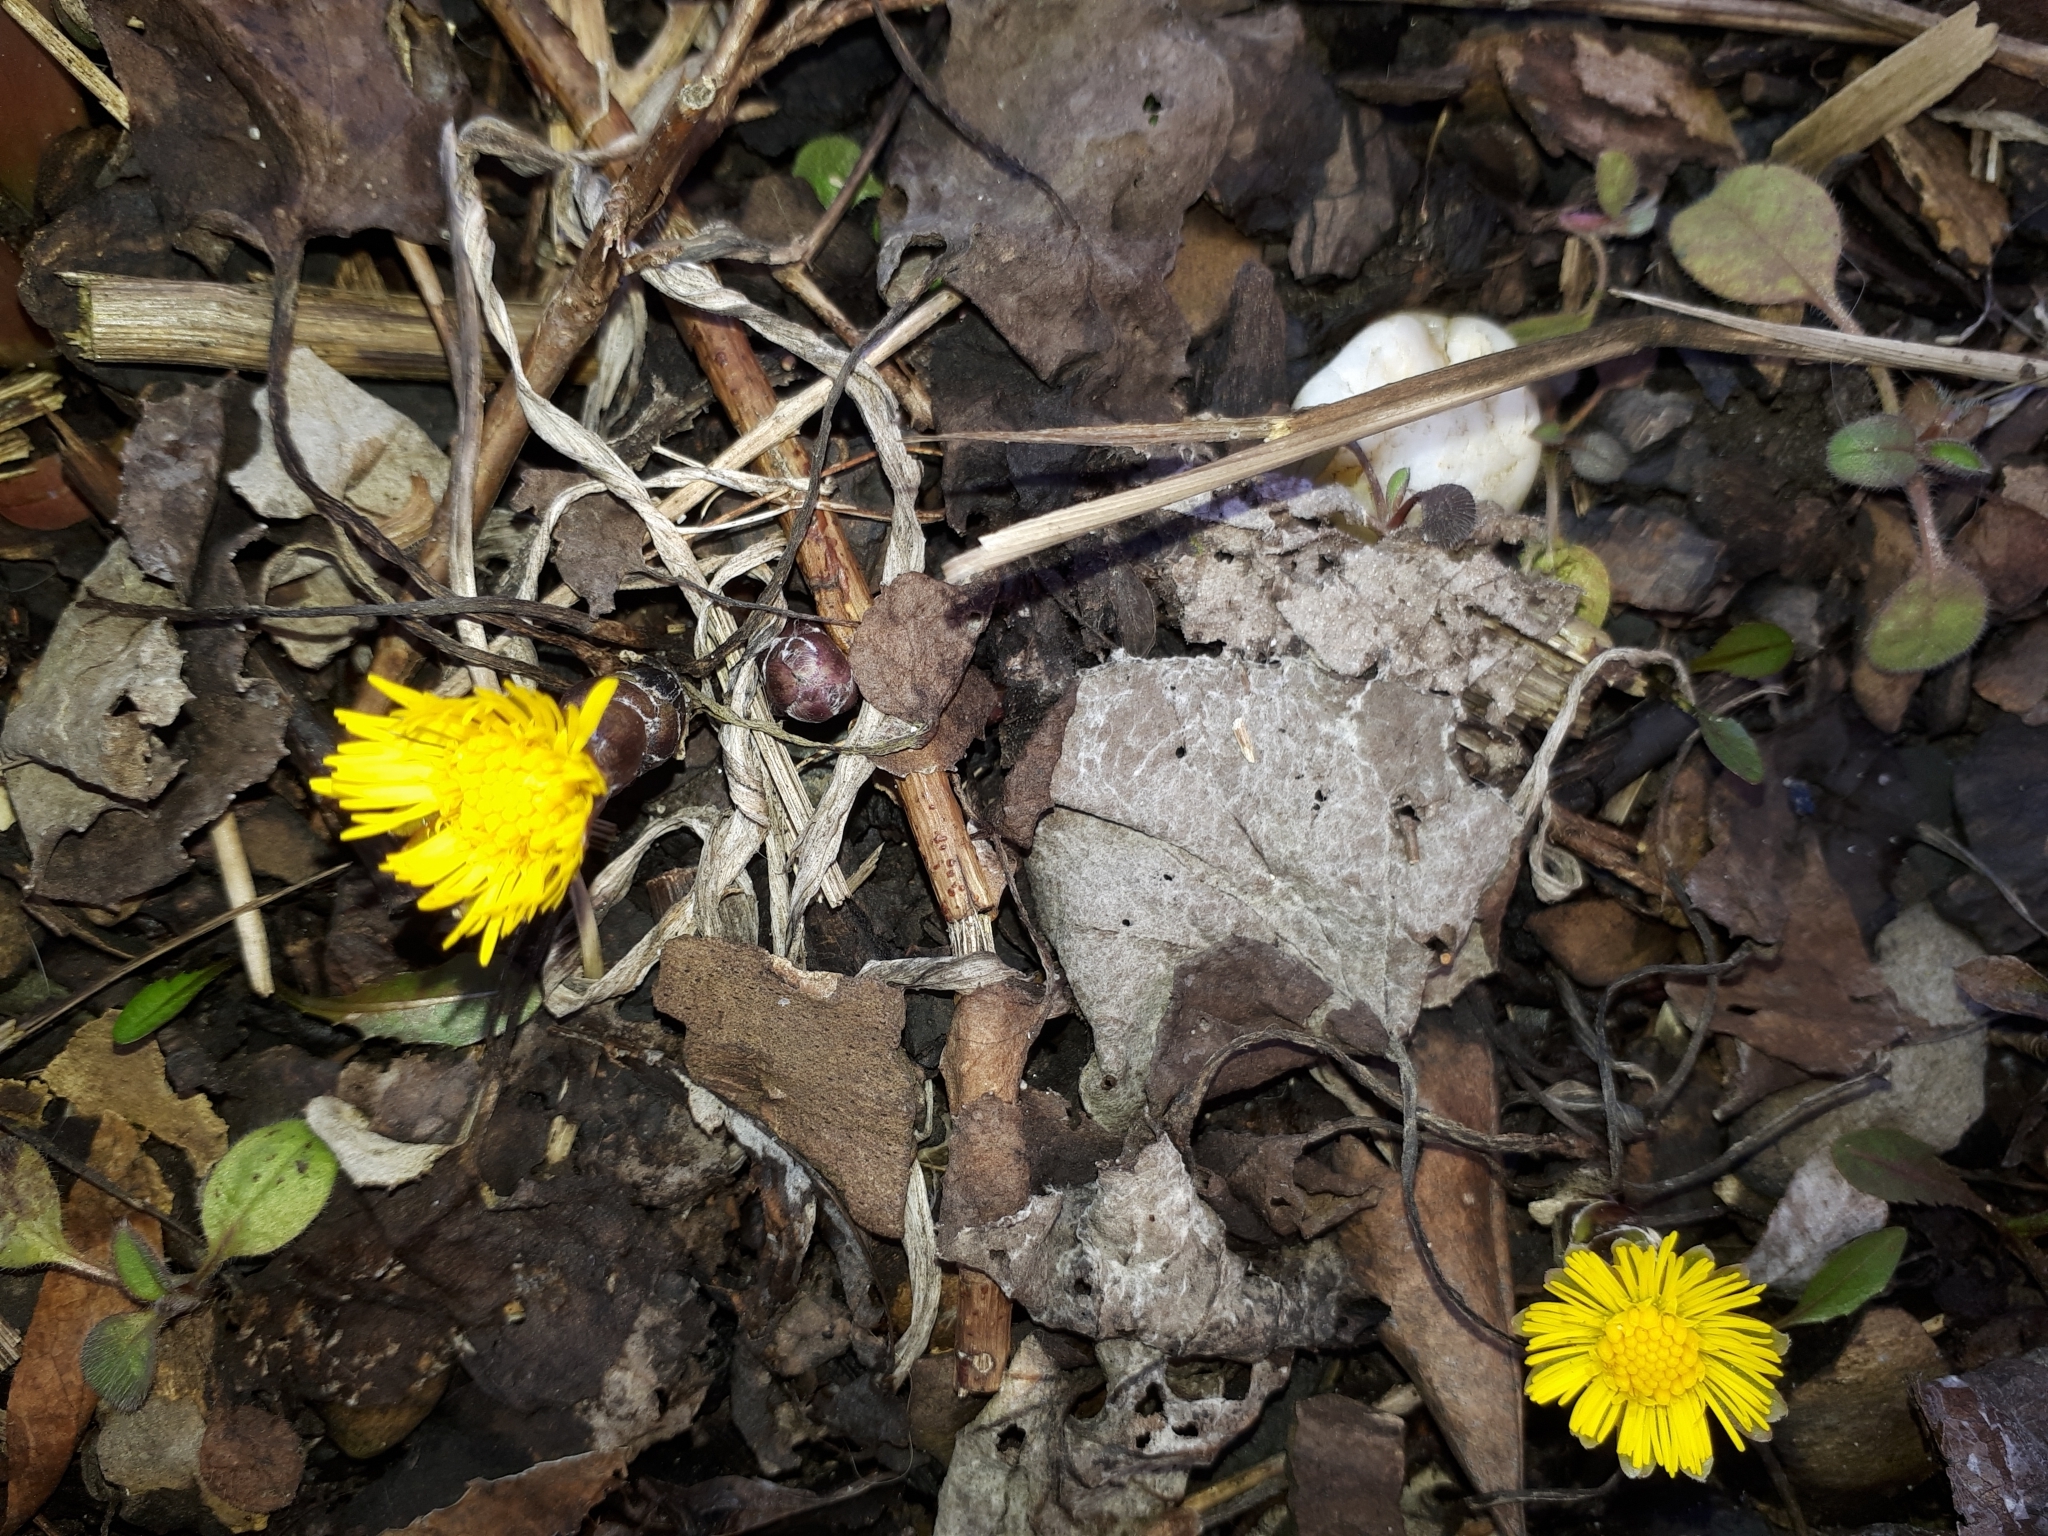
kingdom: Plantae
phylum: Tracheophyta
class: Magnoliopsida
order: Asterales
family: Asteraceae
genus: Tussilago
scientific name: Tussilago farfara
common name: Coltsfoot
